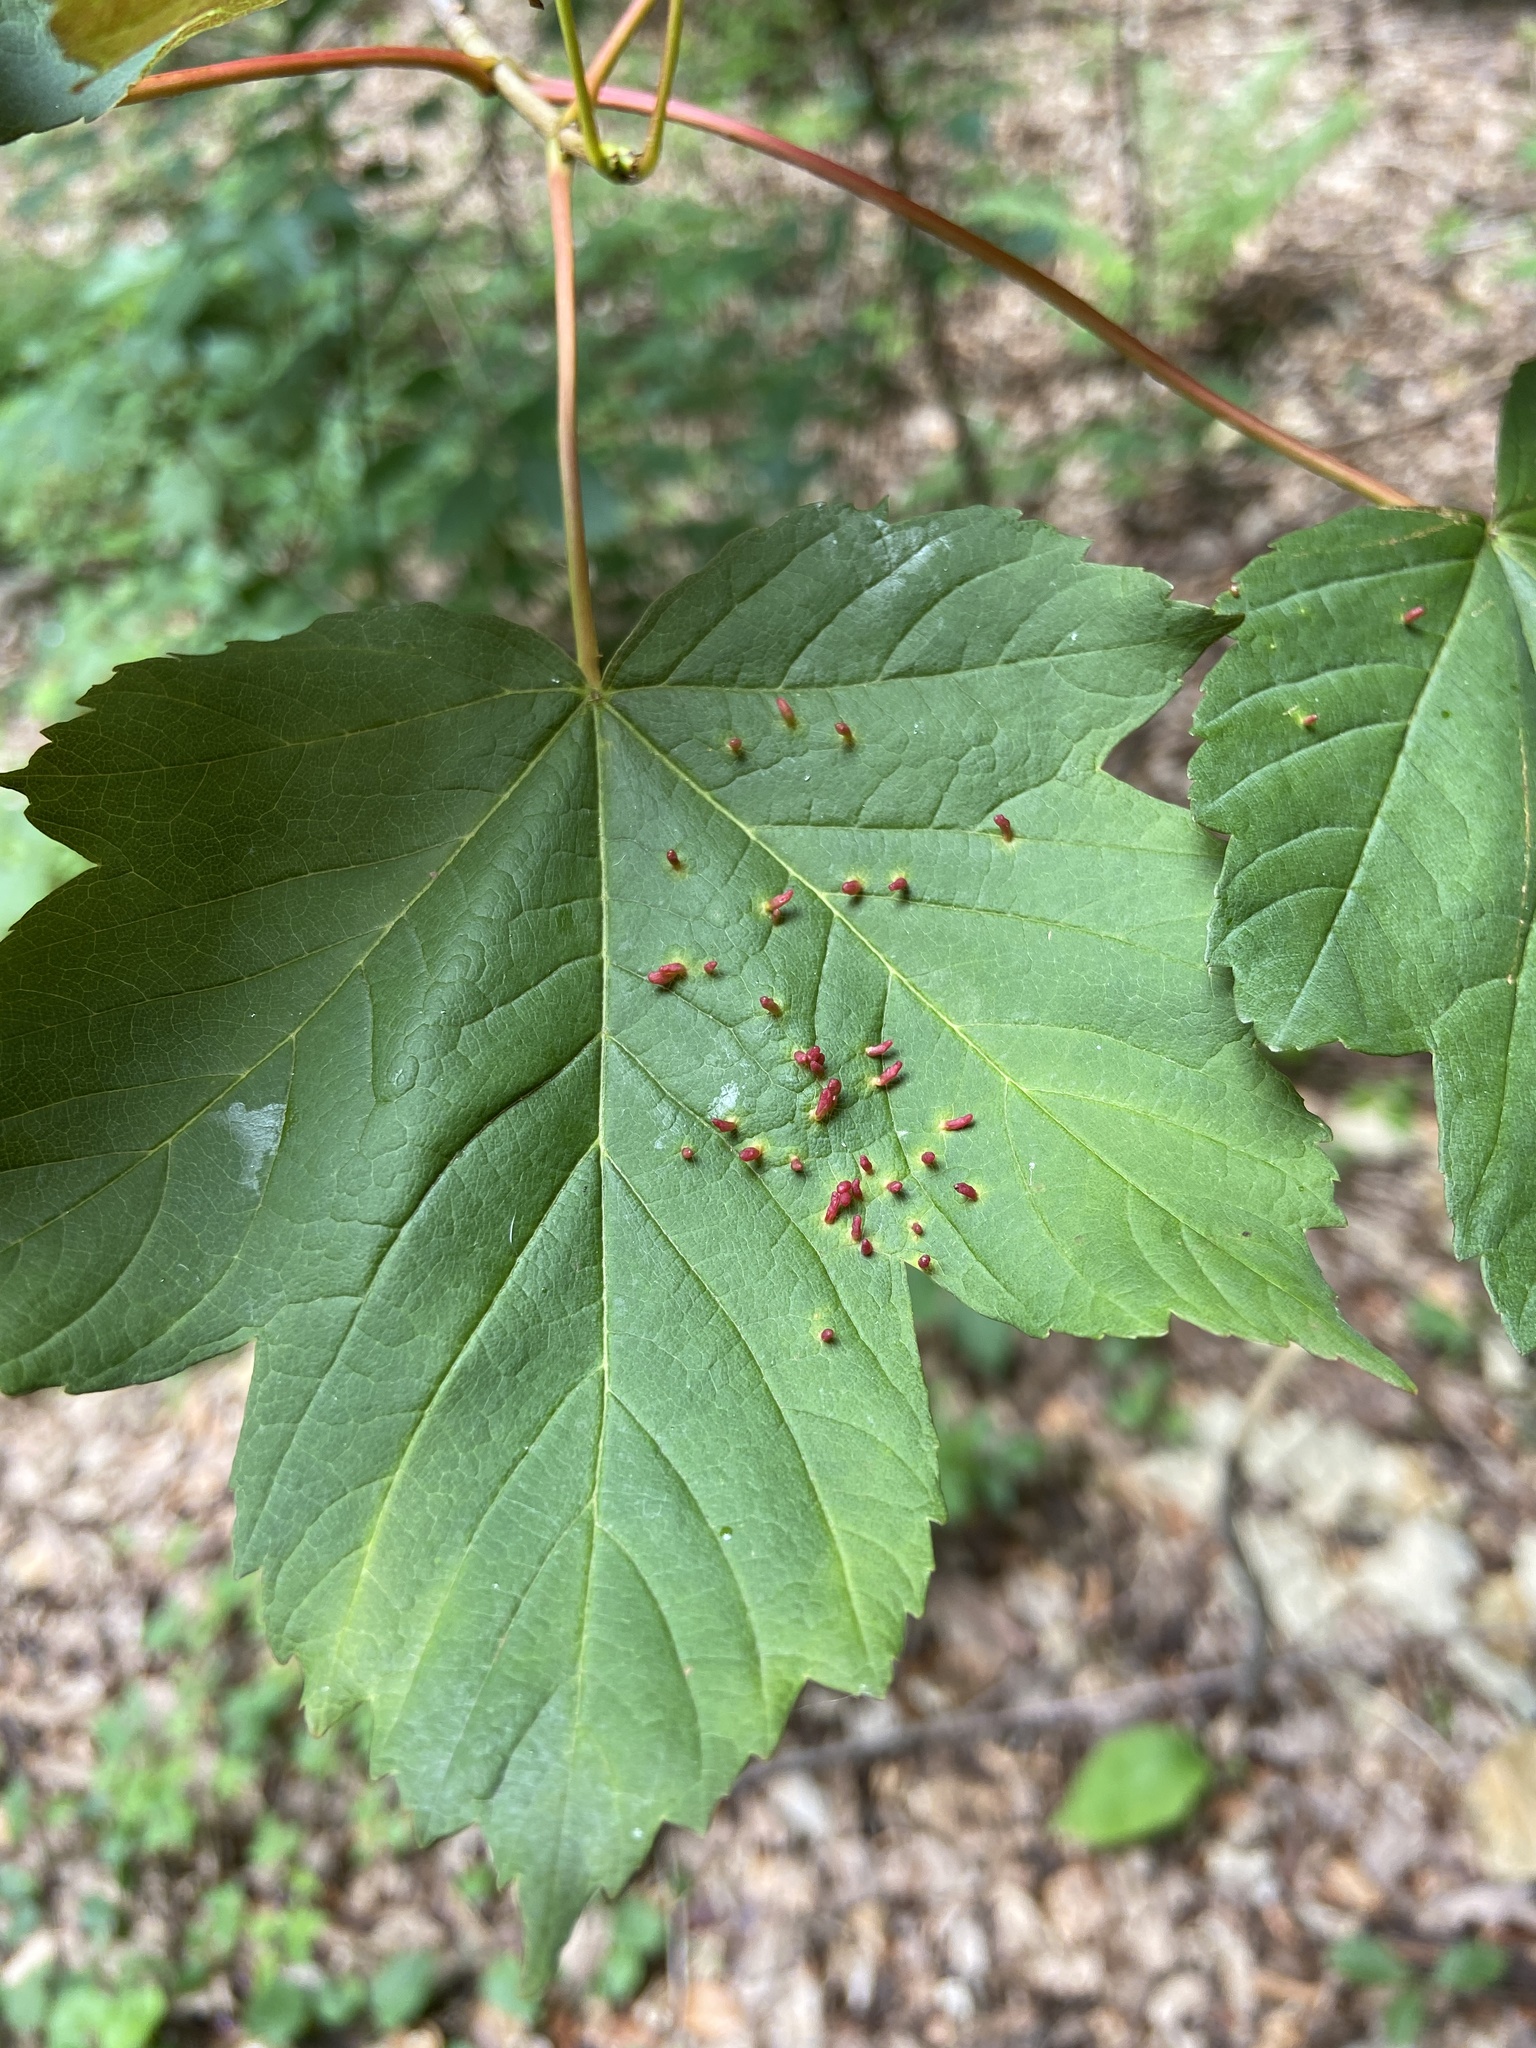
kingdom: Animalia
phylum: Arthropoda
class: Arachnida
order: Trombidiformes
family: Eriophyidae
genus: Aceria
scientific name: Aceria cephaloneus
